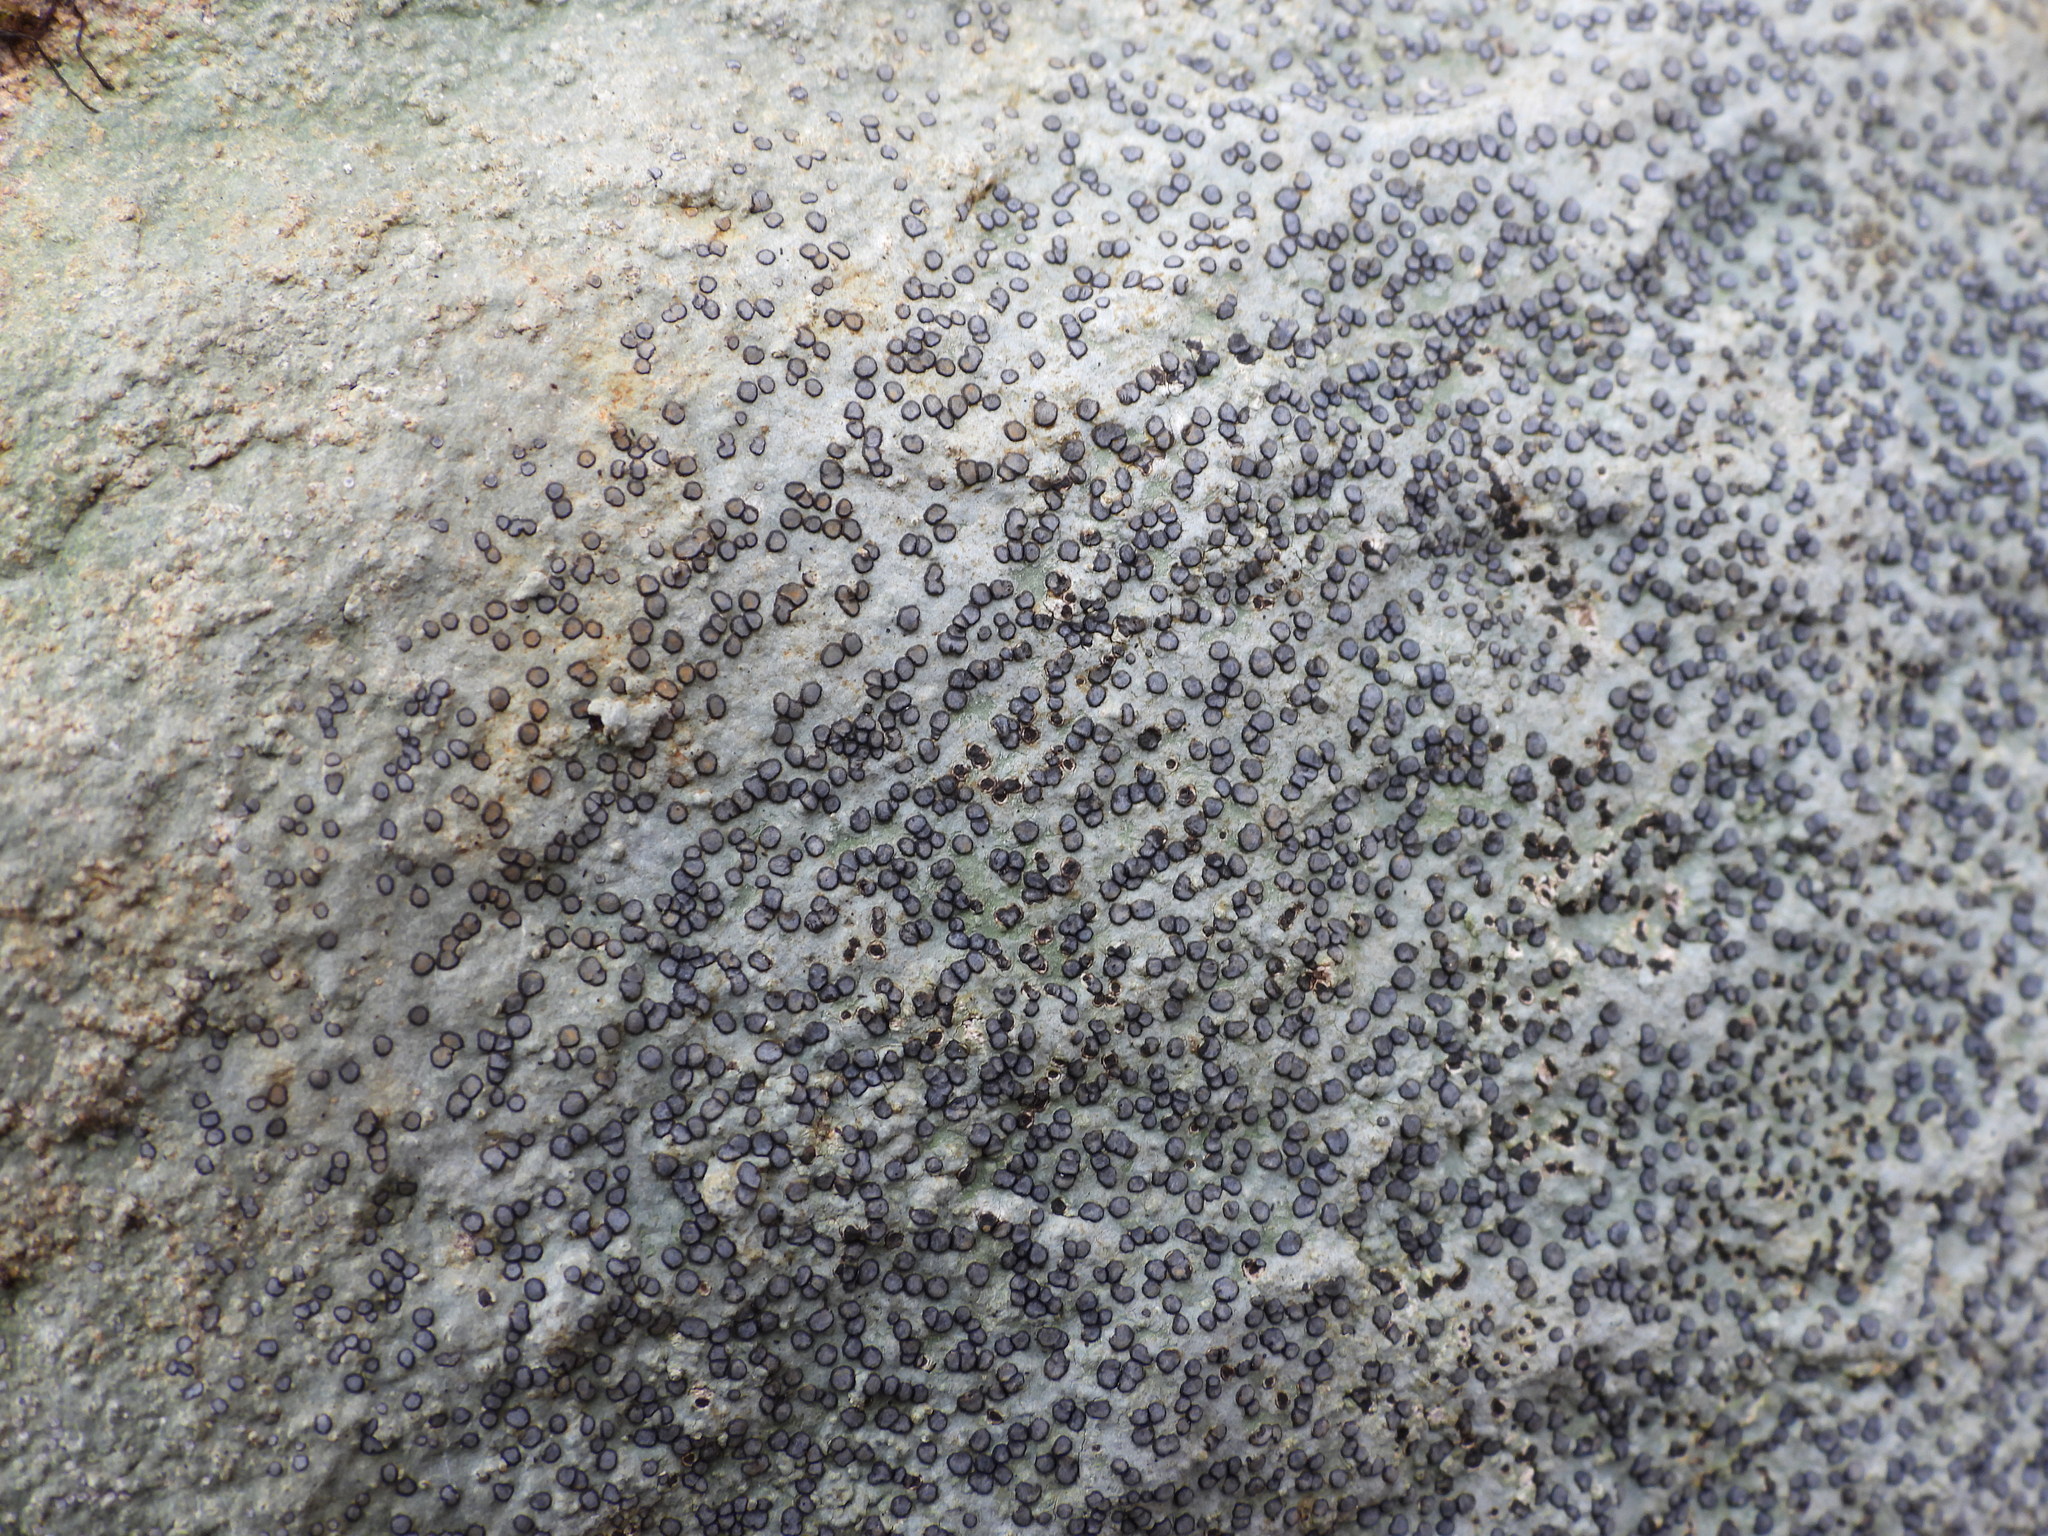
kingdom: Fungi
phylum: Ascomycota
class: Lecanoromycetes
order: Lecideales
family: Lecideaceae
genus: Porpidia
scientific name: Porpidia albocaerulescens
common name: Smokey-eyed boulder lichen
